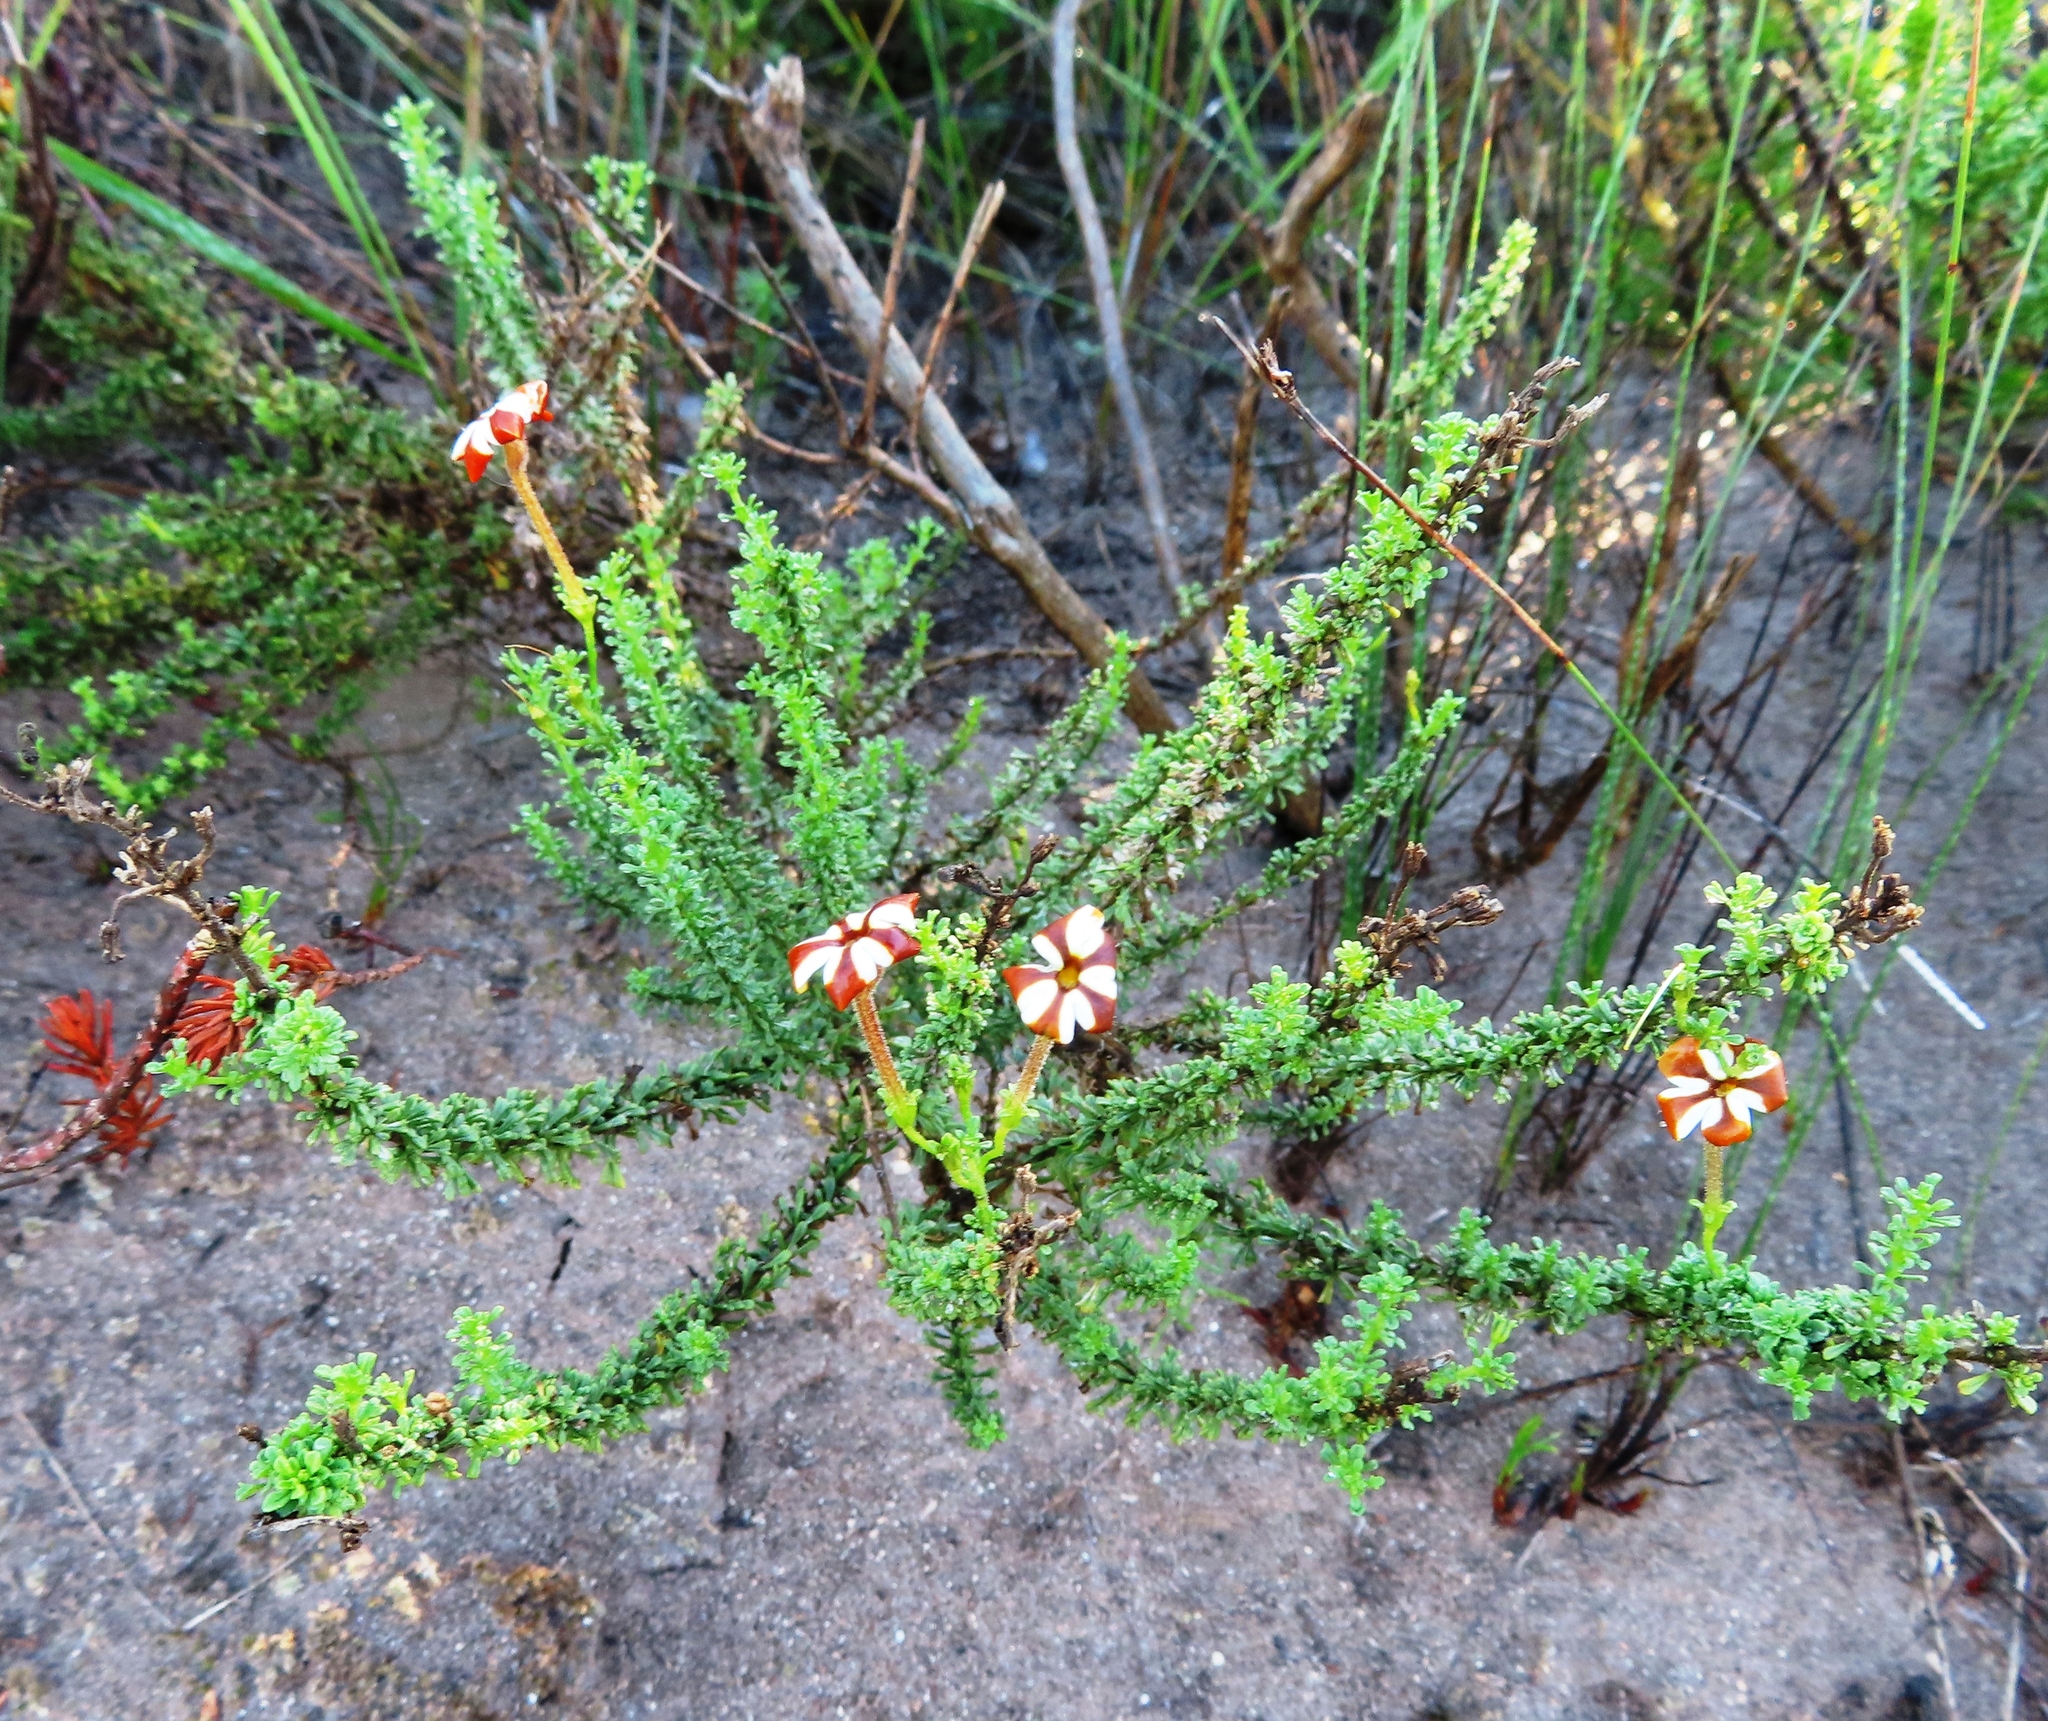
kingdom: Plantae
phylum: Tracheophyta
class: Magnoliopsida
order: Lamiales
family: Scrophulariaceae
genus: Jamesbrittenia
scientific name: Jamesbrittenia albomarginata
